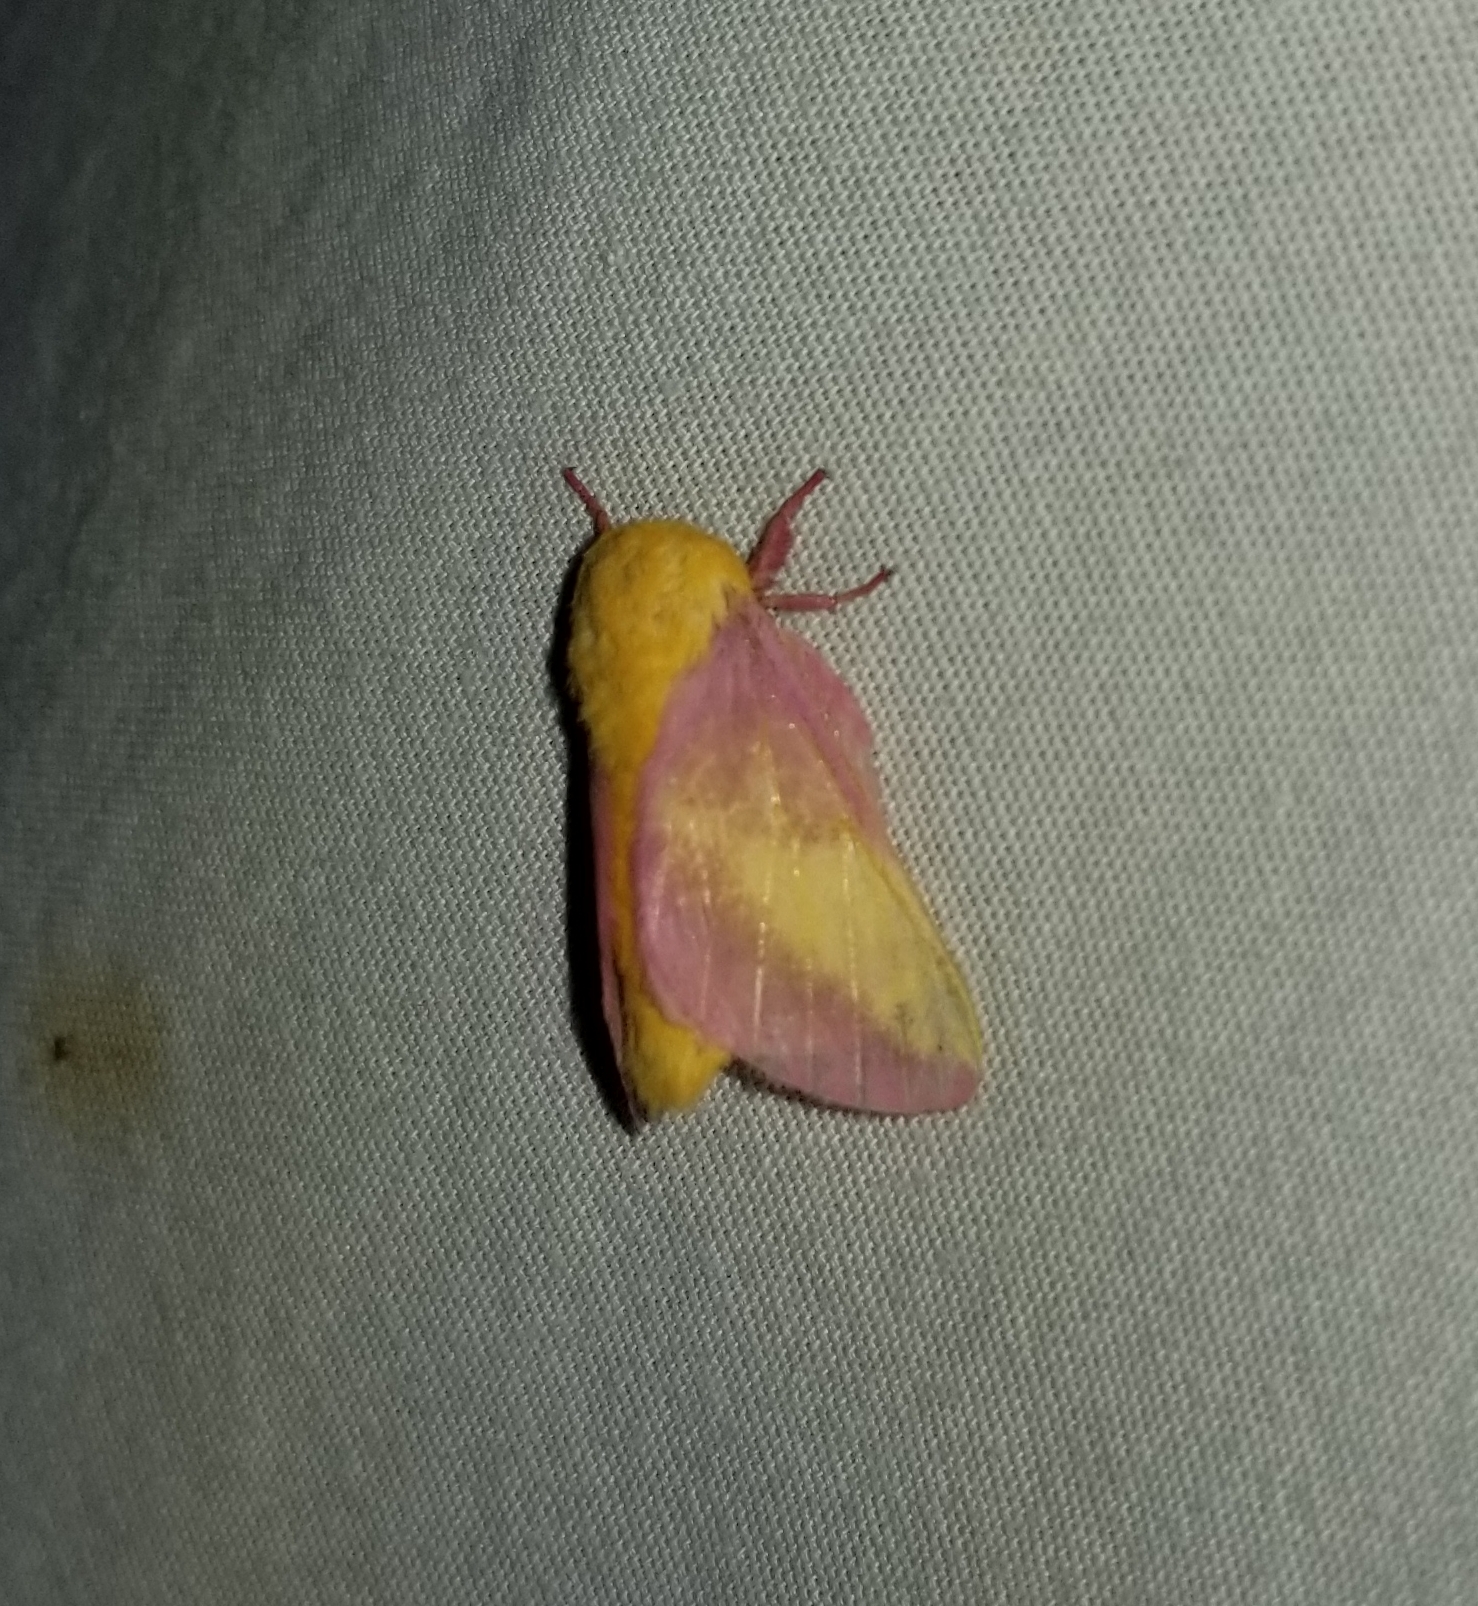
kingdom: Animalia
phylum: Arthropoda
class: Insecta
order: Lepidoptera
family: Saturniidae
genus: Dryocampa
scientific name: Dryocampa rubicunda
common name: Rosy maple moth
